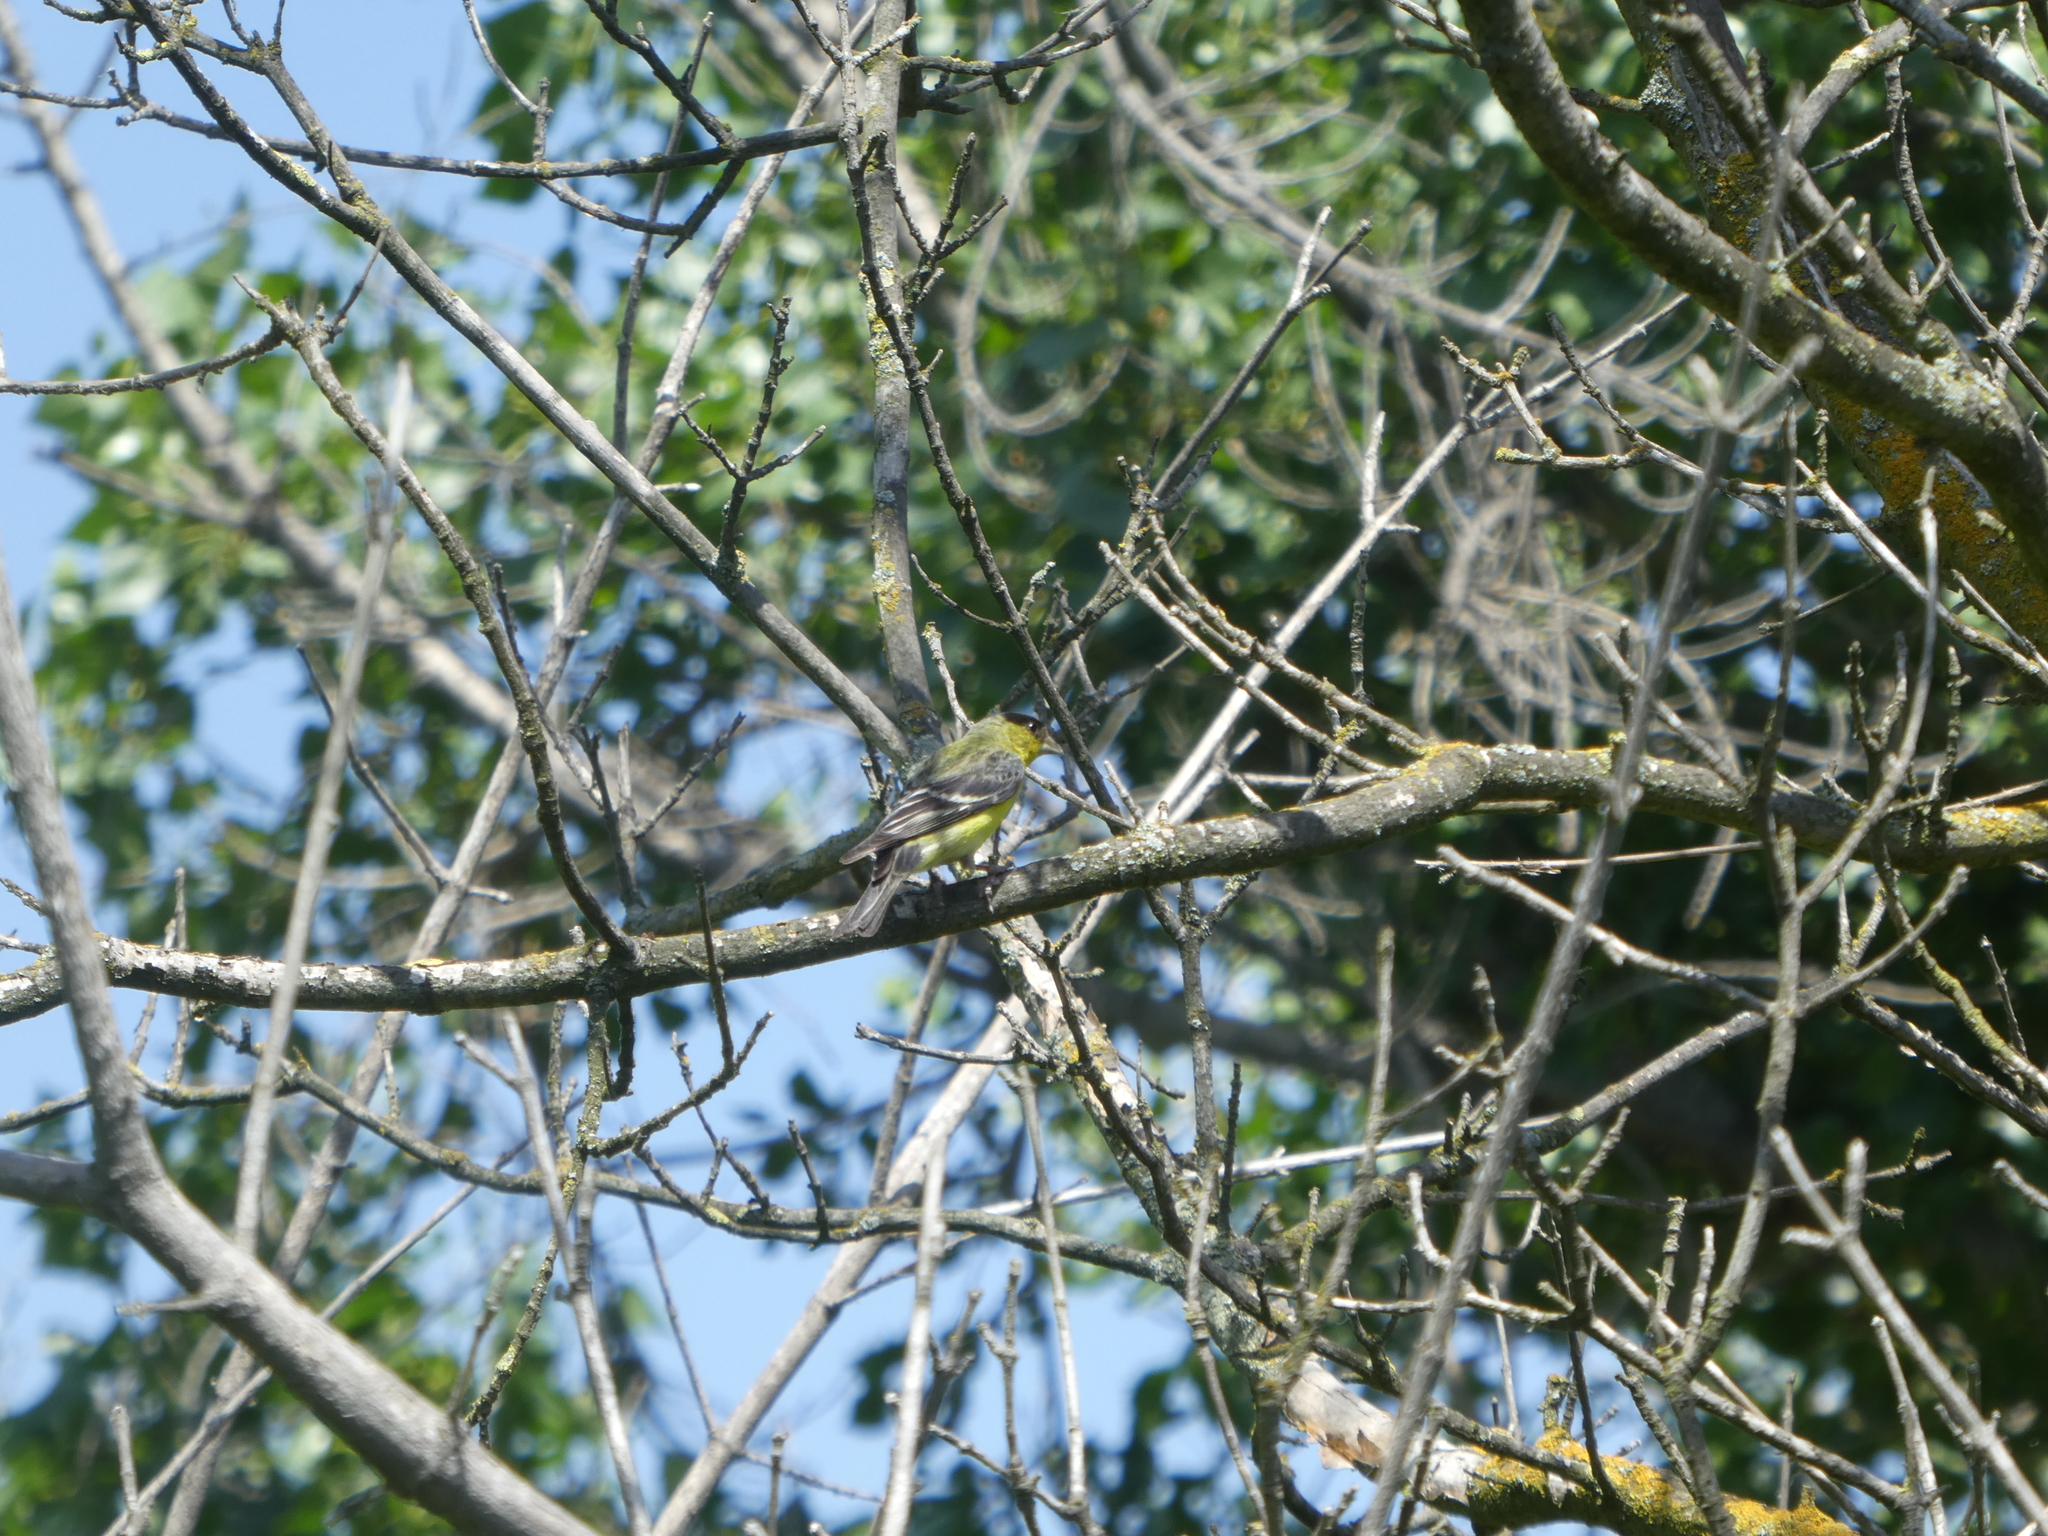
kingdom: Animalia
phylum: Chordata
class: Aves
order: Passeriformes
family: Fringillidae
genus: Spinus
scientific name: Spinus psaltria
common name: Lesser goldfinch
